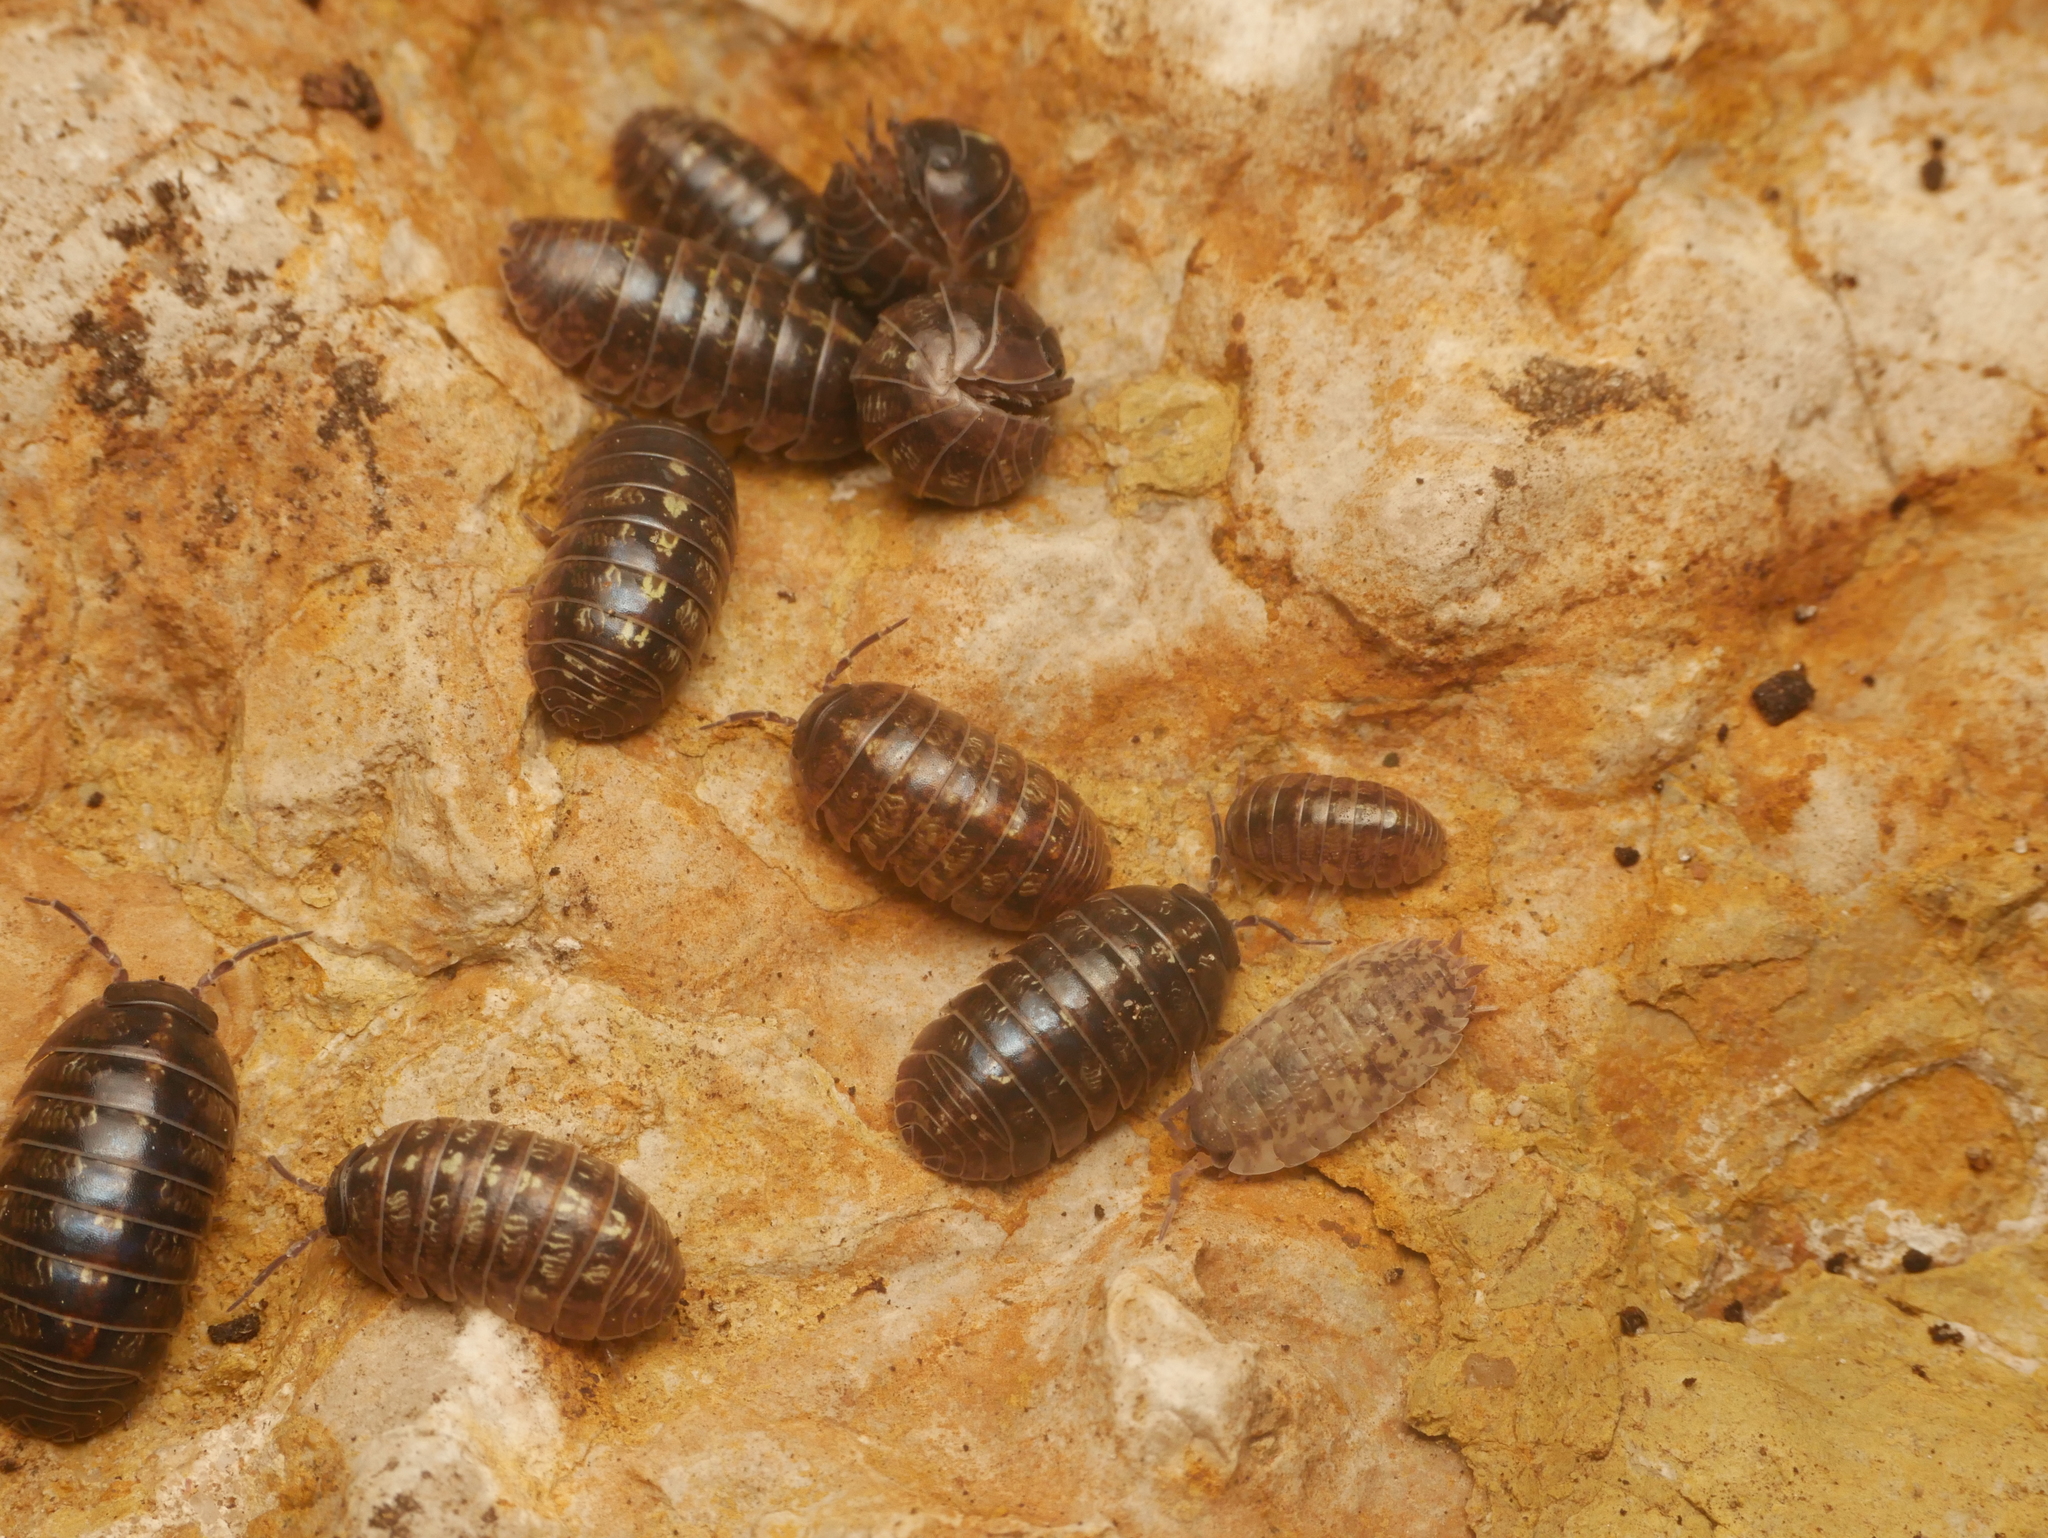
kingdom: Animalia
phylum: Arthropoda
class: Malacostraca
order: Isopoda
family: Armadillidiidae
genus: Armadillidium
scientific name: Armadillidium vulgare
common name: Common pill woodlouse
